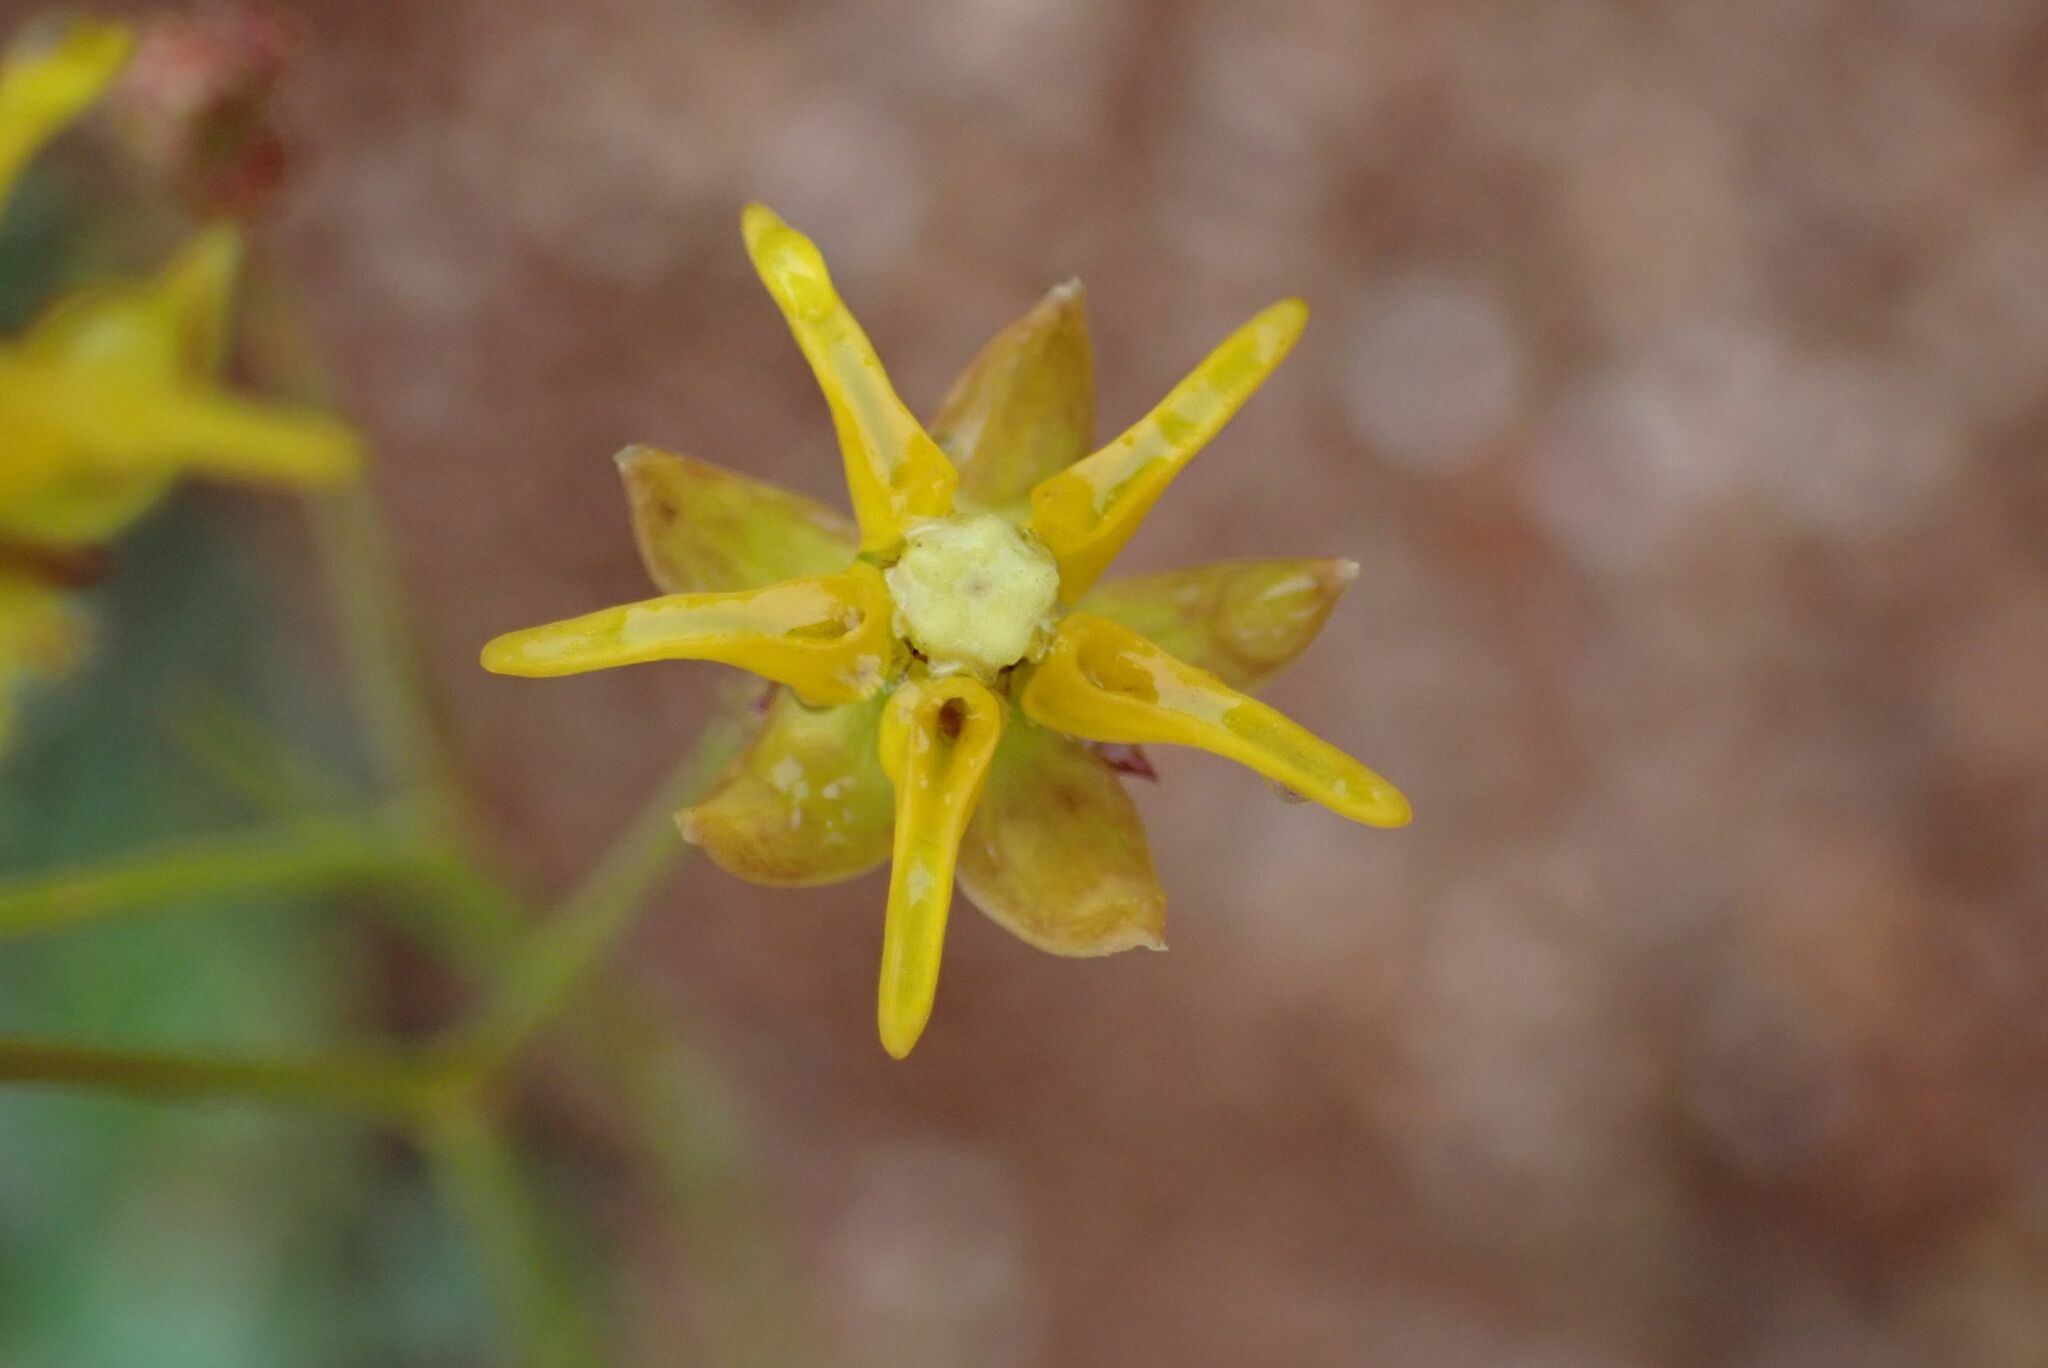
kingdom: Plantae
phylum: Tracheophyta
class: Magnoliopsida
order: Gentianales
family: Apocynaceae
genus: Asclepias
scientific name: Asclepias aurea
